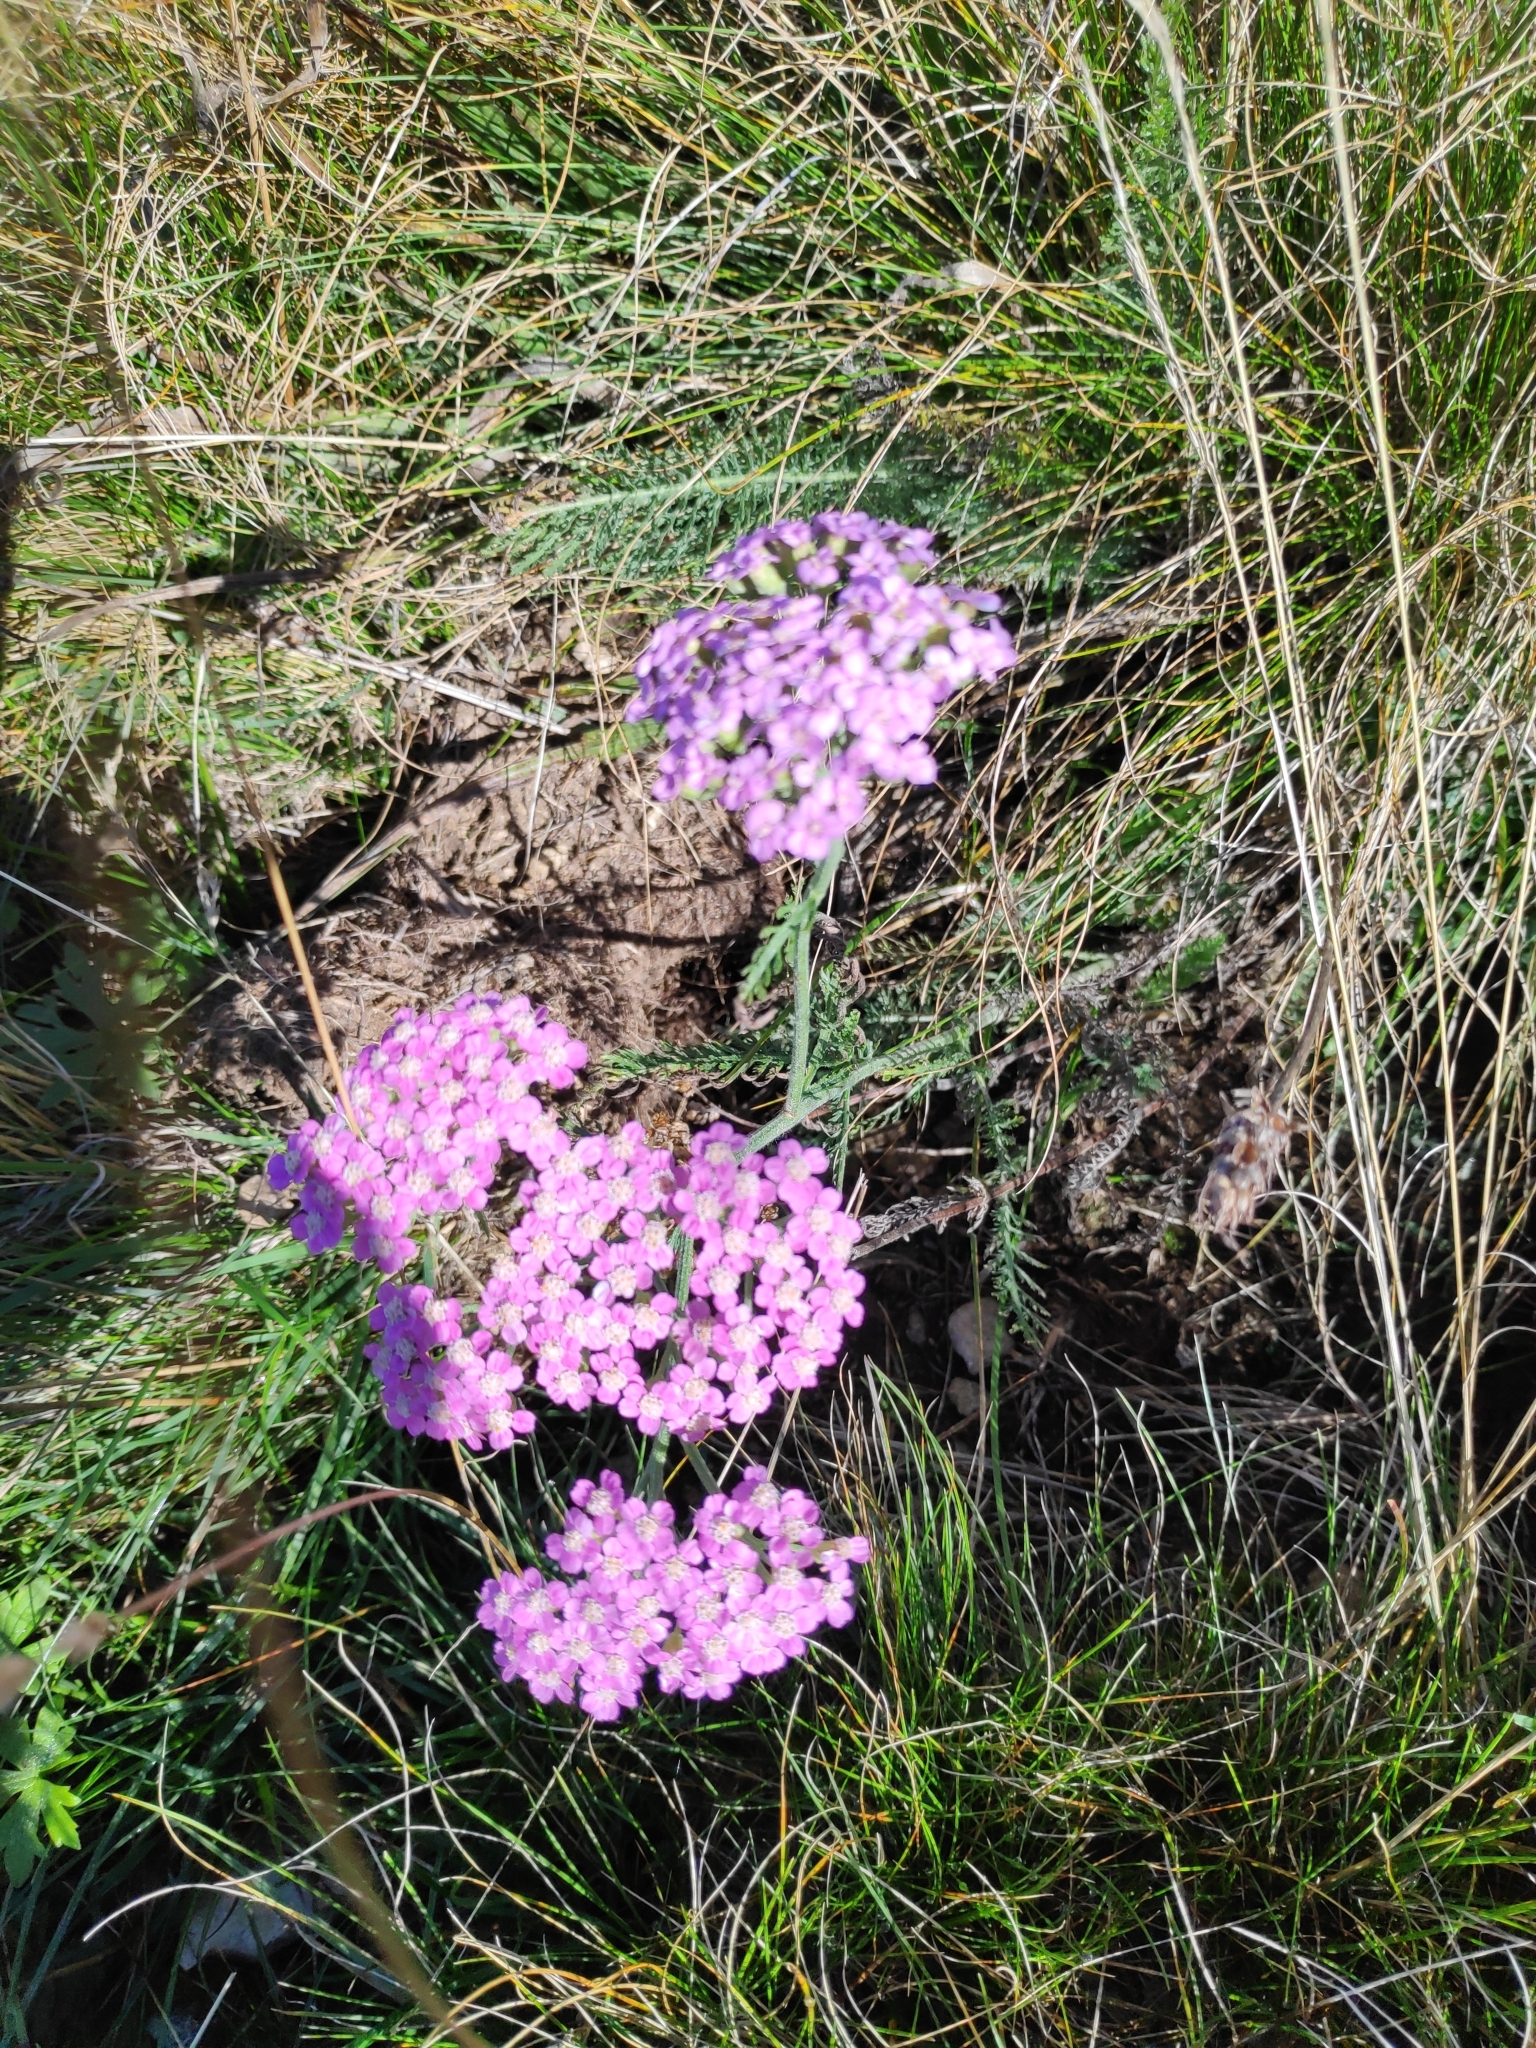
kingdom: Plantae
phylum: Tracheophyta
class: Magnoliopsida
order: Asterales
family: Asteraceae
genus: Achillea
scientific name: Achillea millefolium
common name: Yarrow
